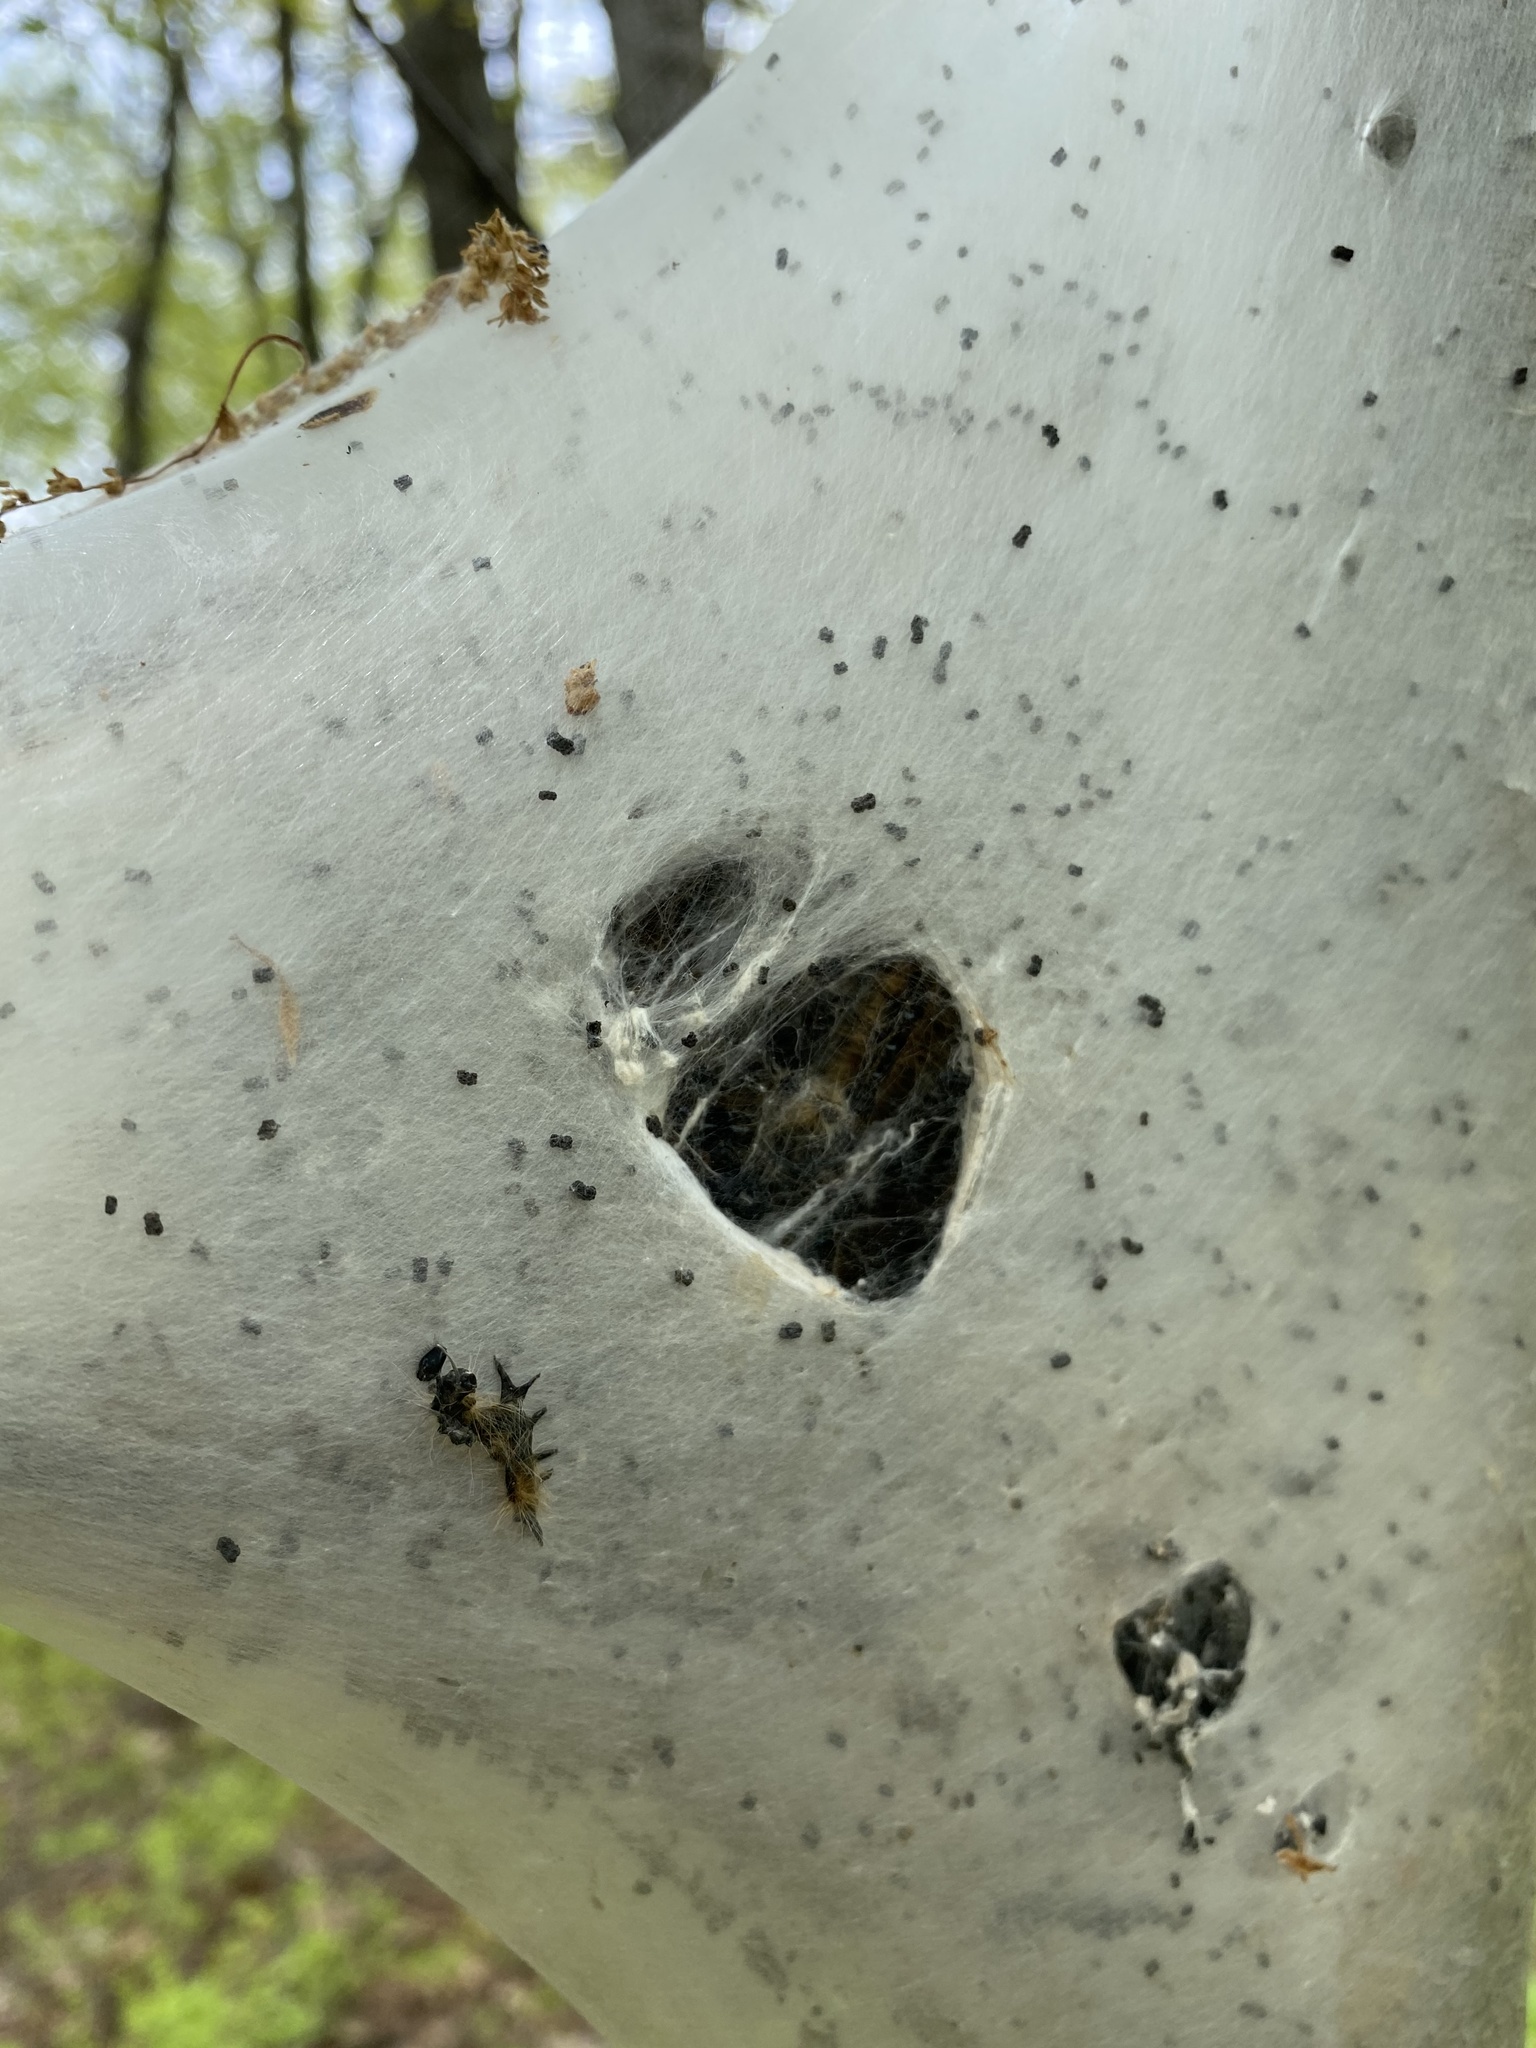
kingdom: Animalia
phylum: Arthropoda
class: Insecta
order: Lepidoptera
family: Lasiocampidae
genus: Malacosoma
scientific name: Malacosoma americana
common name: Eastern tent caterpillar moth
